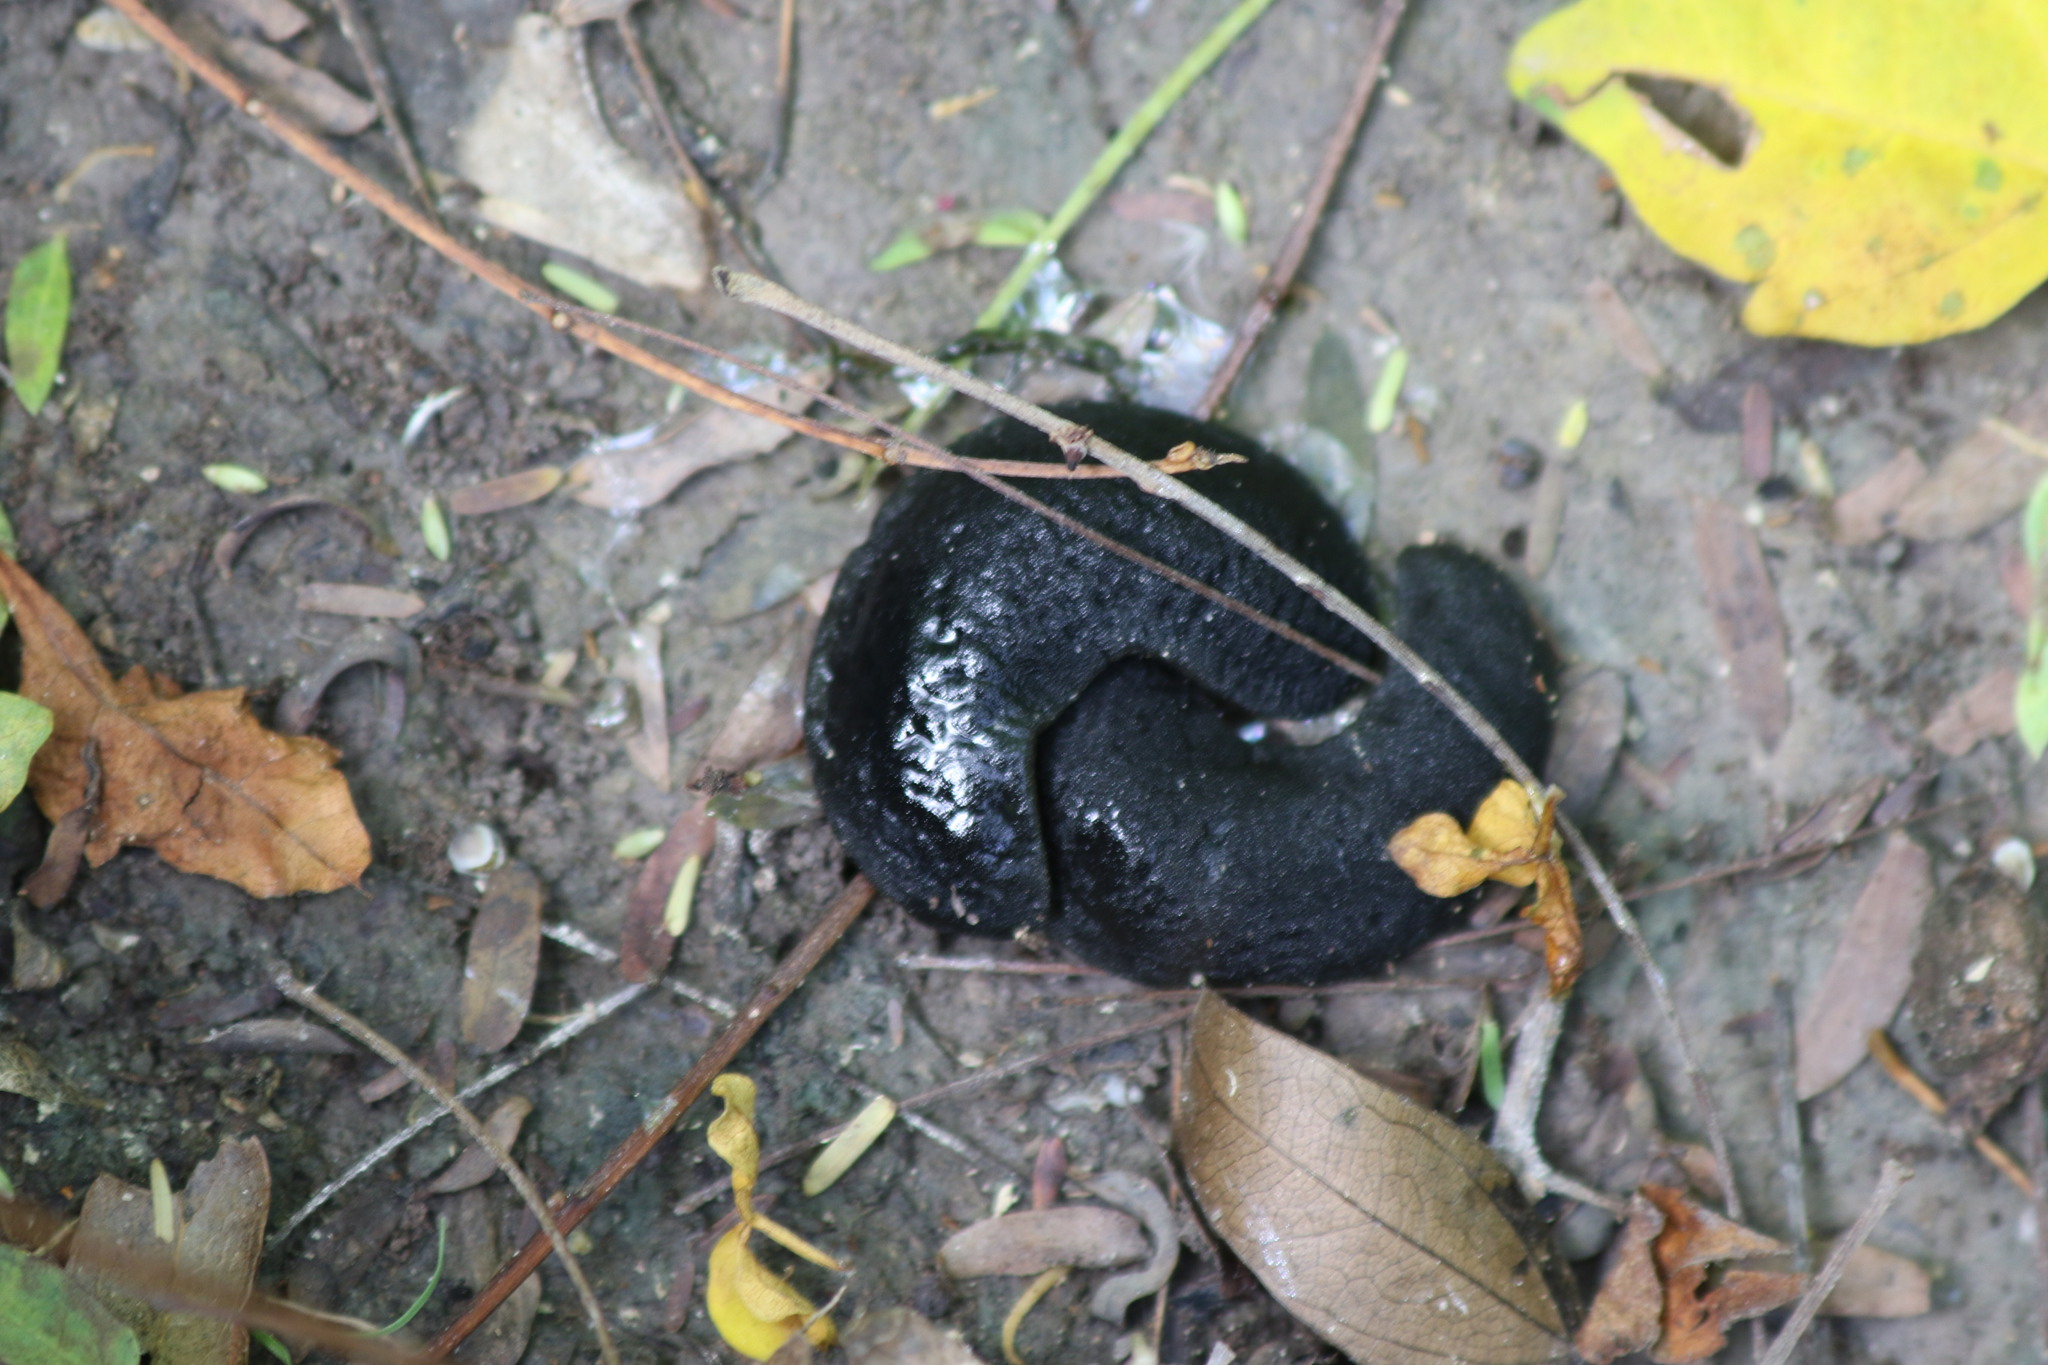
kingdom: Animalia
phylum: Mollusca
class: Gastropoda
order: Systellommatophora
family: Veronicellidae
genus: Belocaulus
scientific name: Belocaulus angustipes
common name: Black velvet leatherleaf slug
